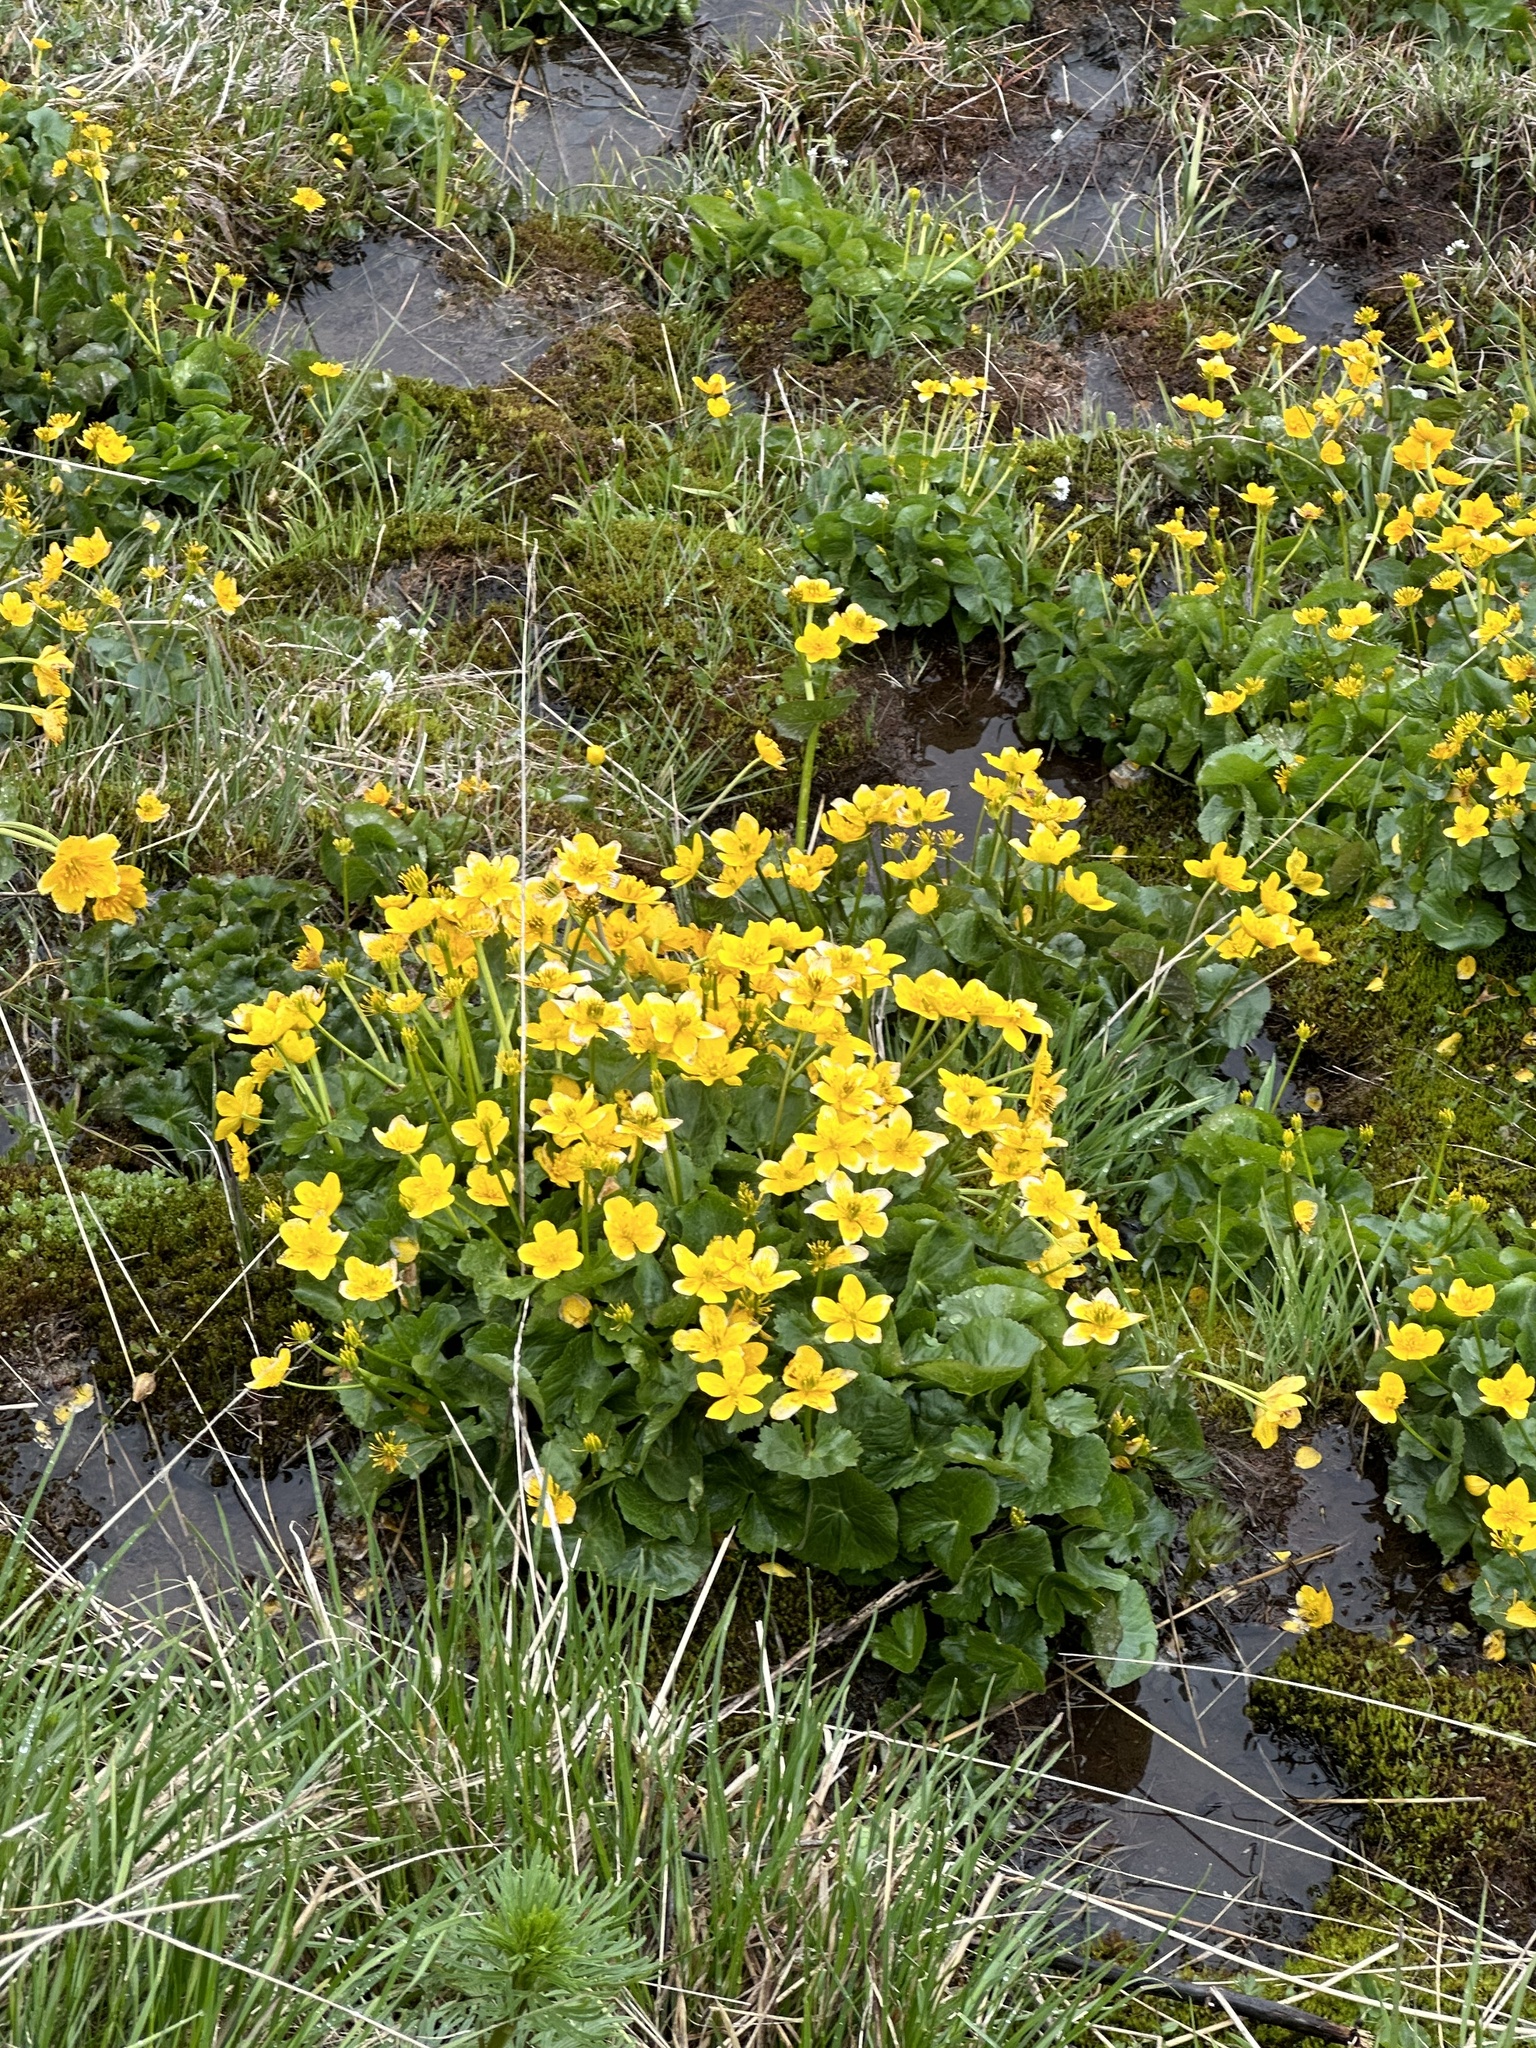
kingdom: Plantae
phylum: Tracheophyta
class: Magnoliopsida
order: Ranunculales
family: Ranunculaceae
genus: Caltha
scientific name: Caltha palustris
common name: Marsh marigold
